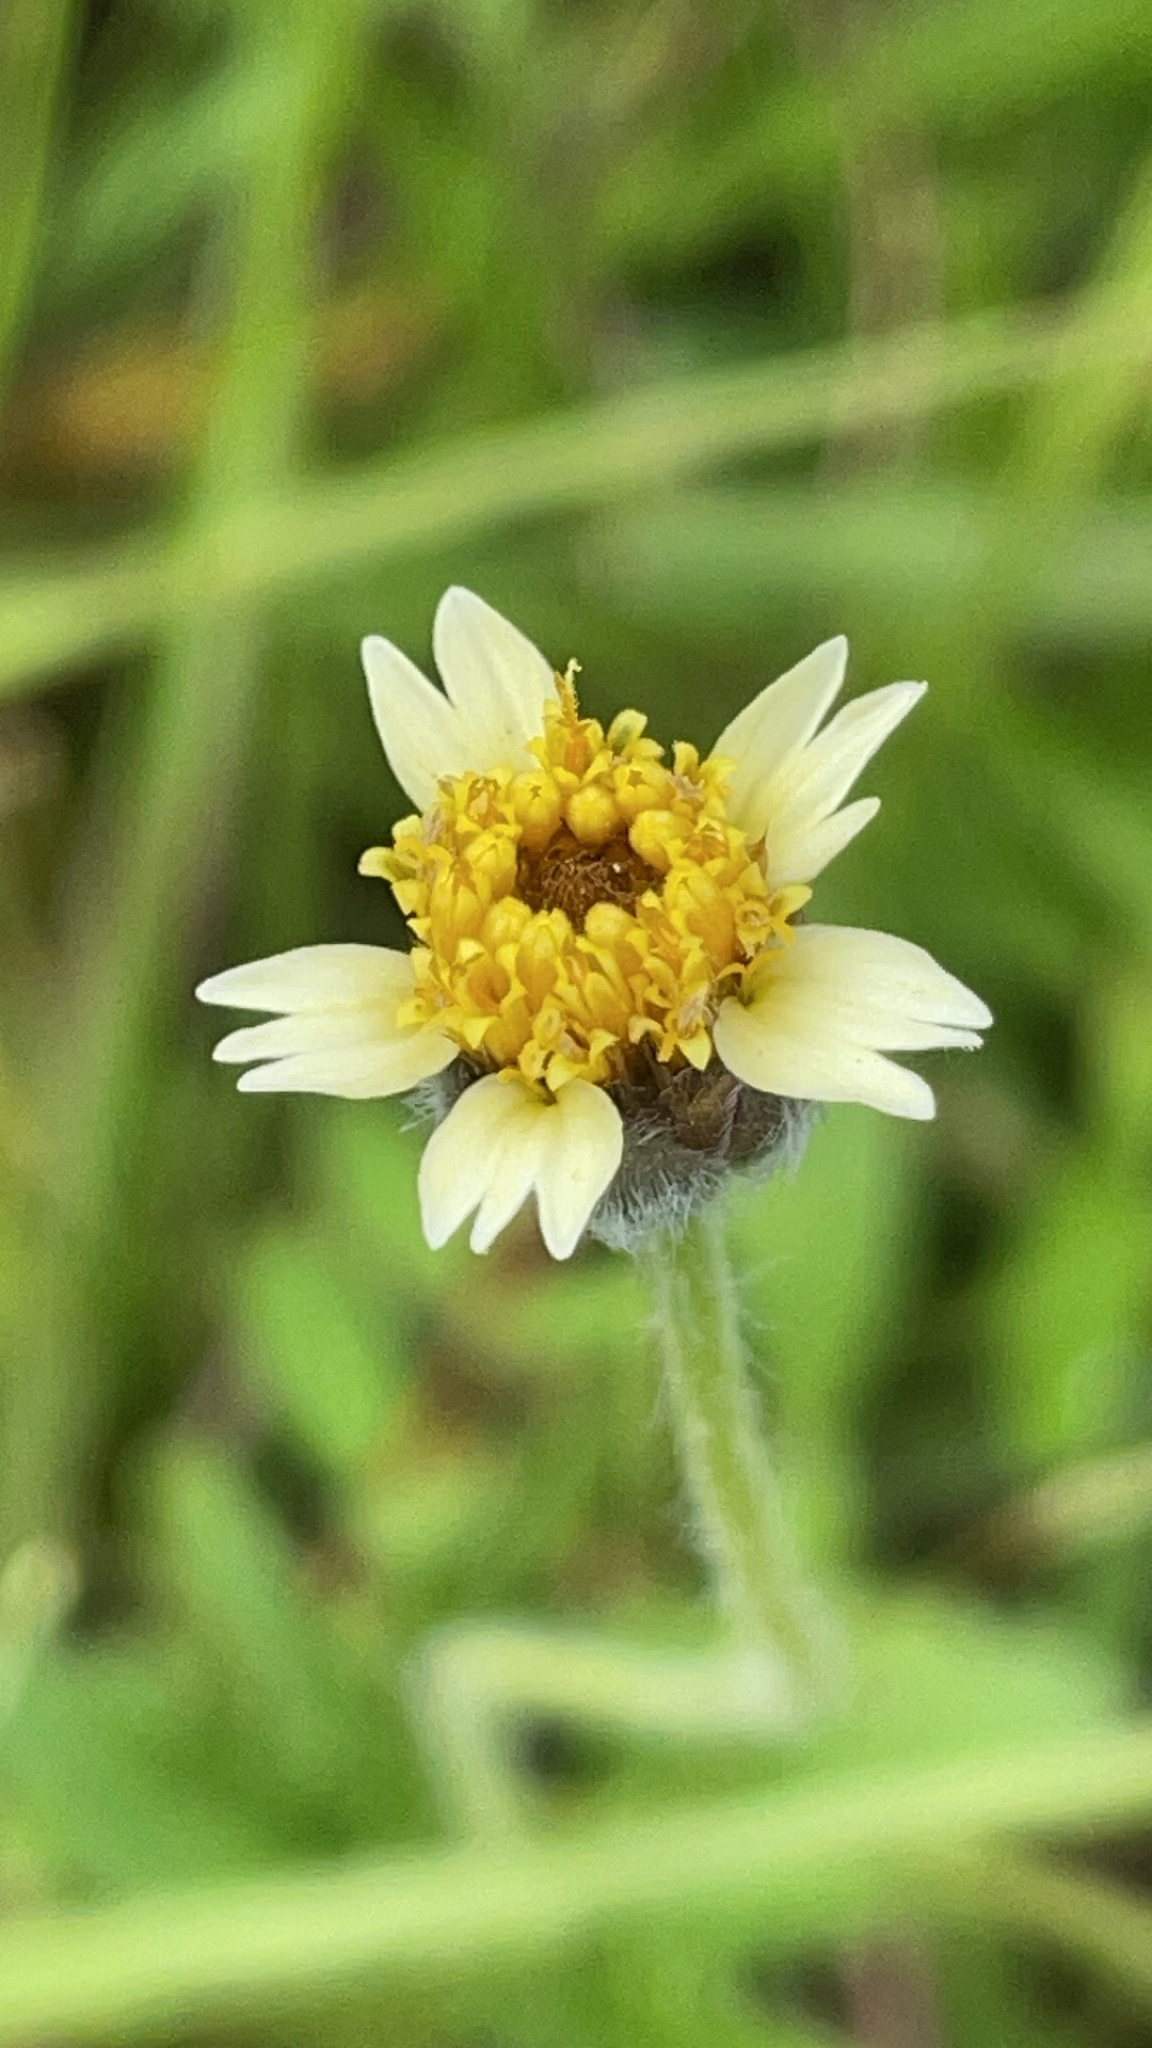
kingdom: Plantae
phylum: Tracheophyta
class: Magnoliopsida
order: Asterales
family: Asteraceae
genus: Tridax
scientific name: Tridax procumbens
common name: Coatbuttons
